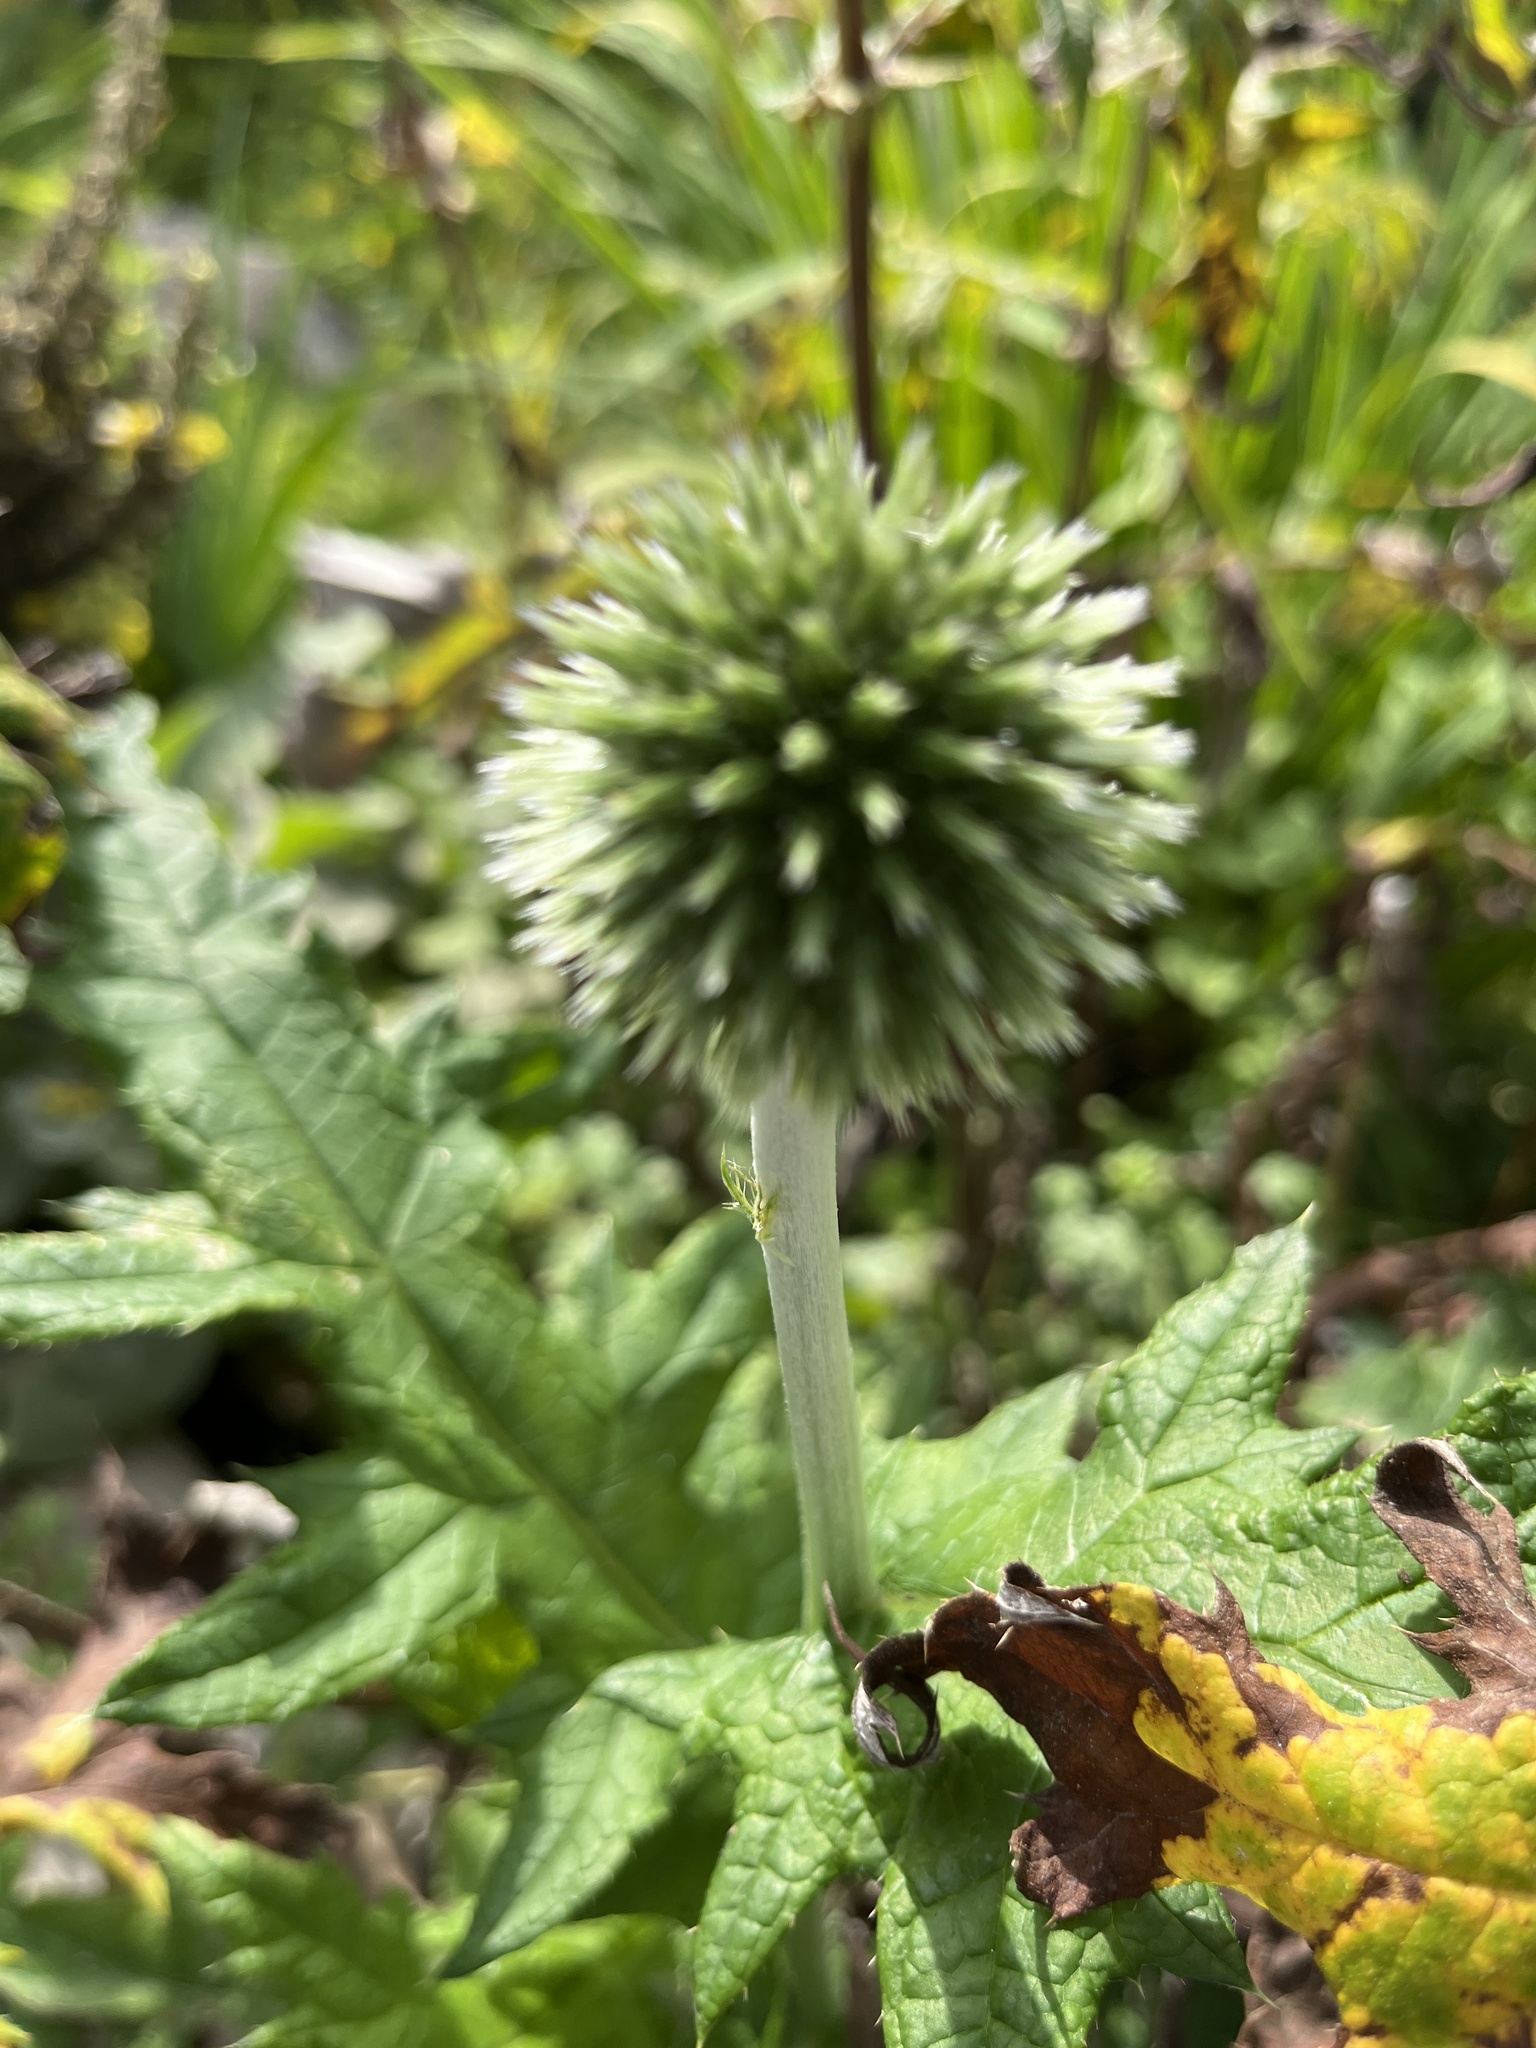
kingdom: Plantae
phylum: Tracheophyta
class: Magnoliopsida
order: Asterales
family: Asteraceae
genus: Echinops
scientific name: Echinops bannaticus
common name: Blue globe-thistle
